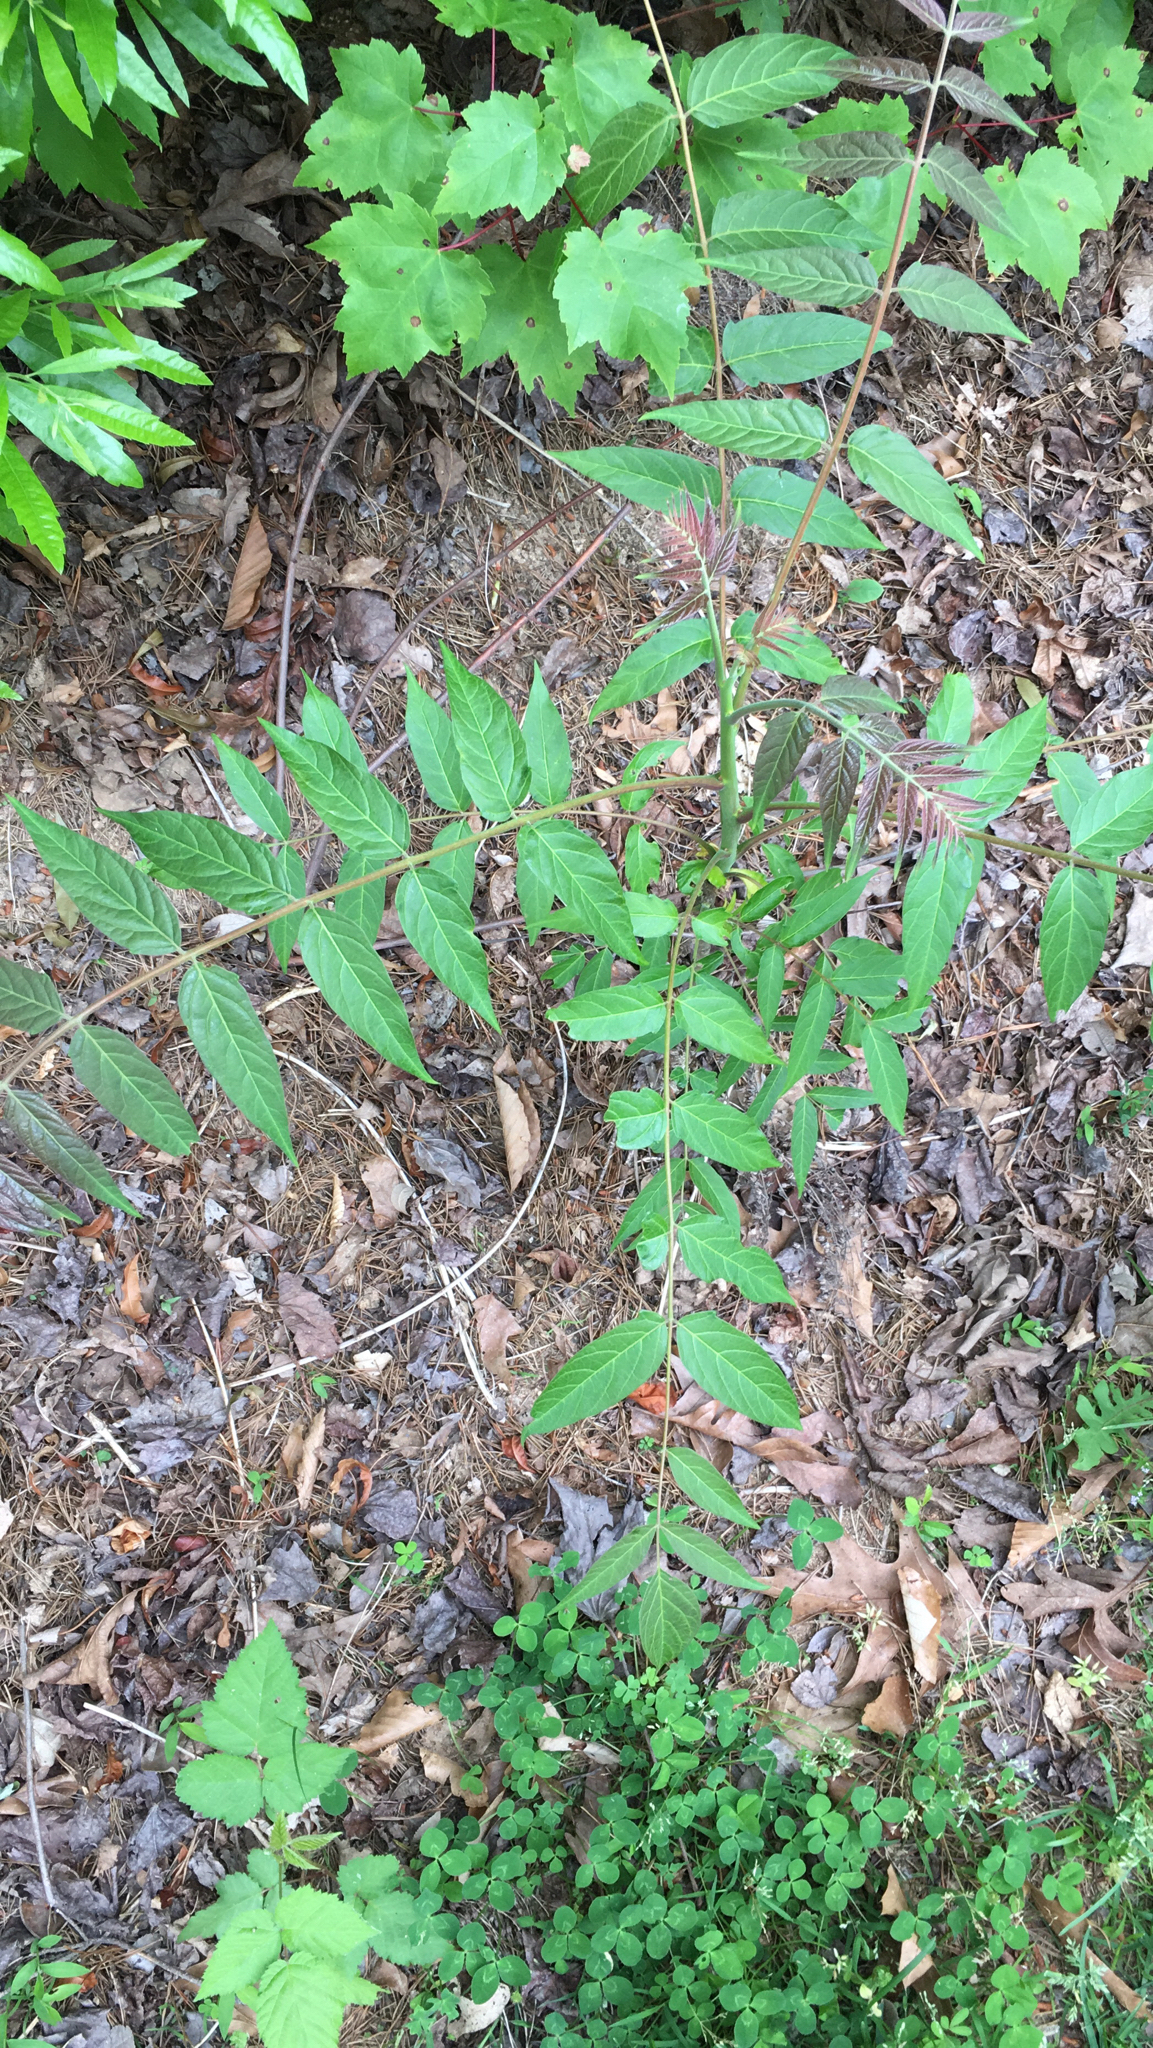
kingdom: Plantae
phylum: Tracheophyta
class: Magnoliopsida
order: Sapindales
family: Simaroubaceae
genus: Ailanthus
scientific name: Ailanthus altissima
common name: Tree-of-heaven
